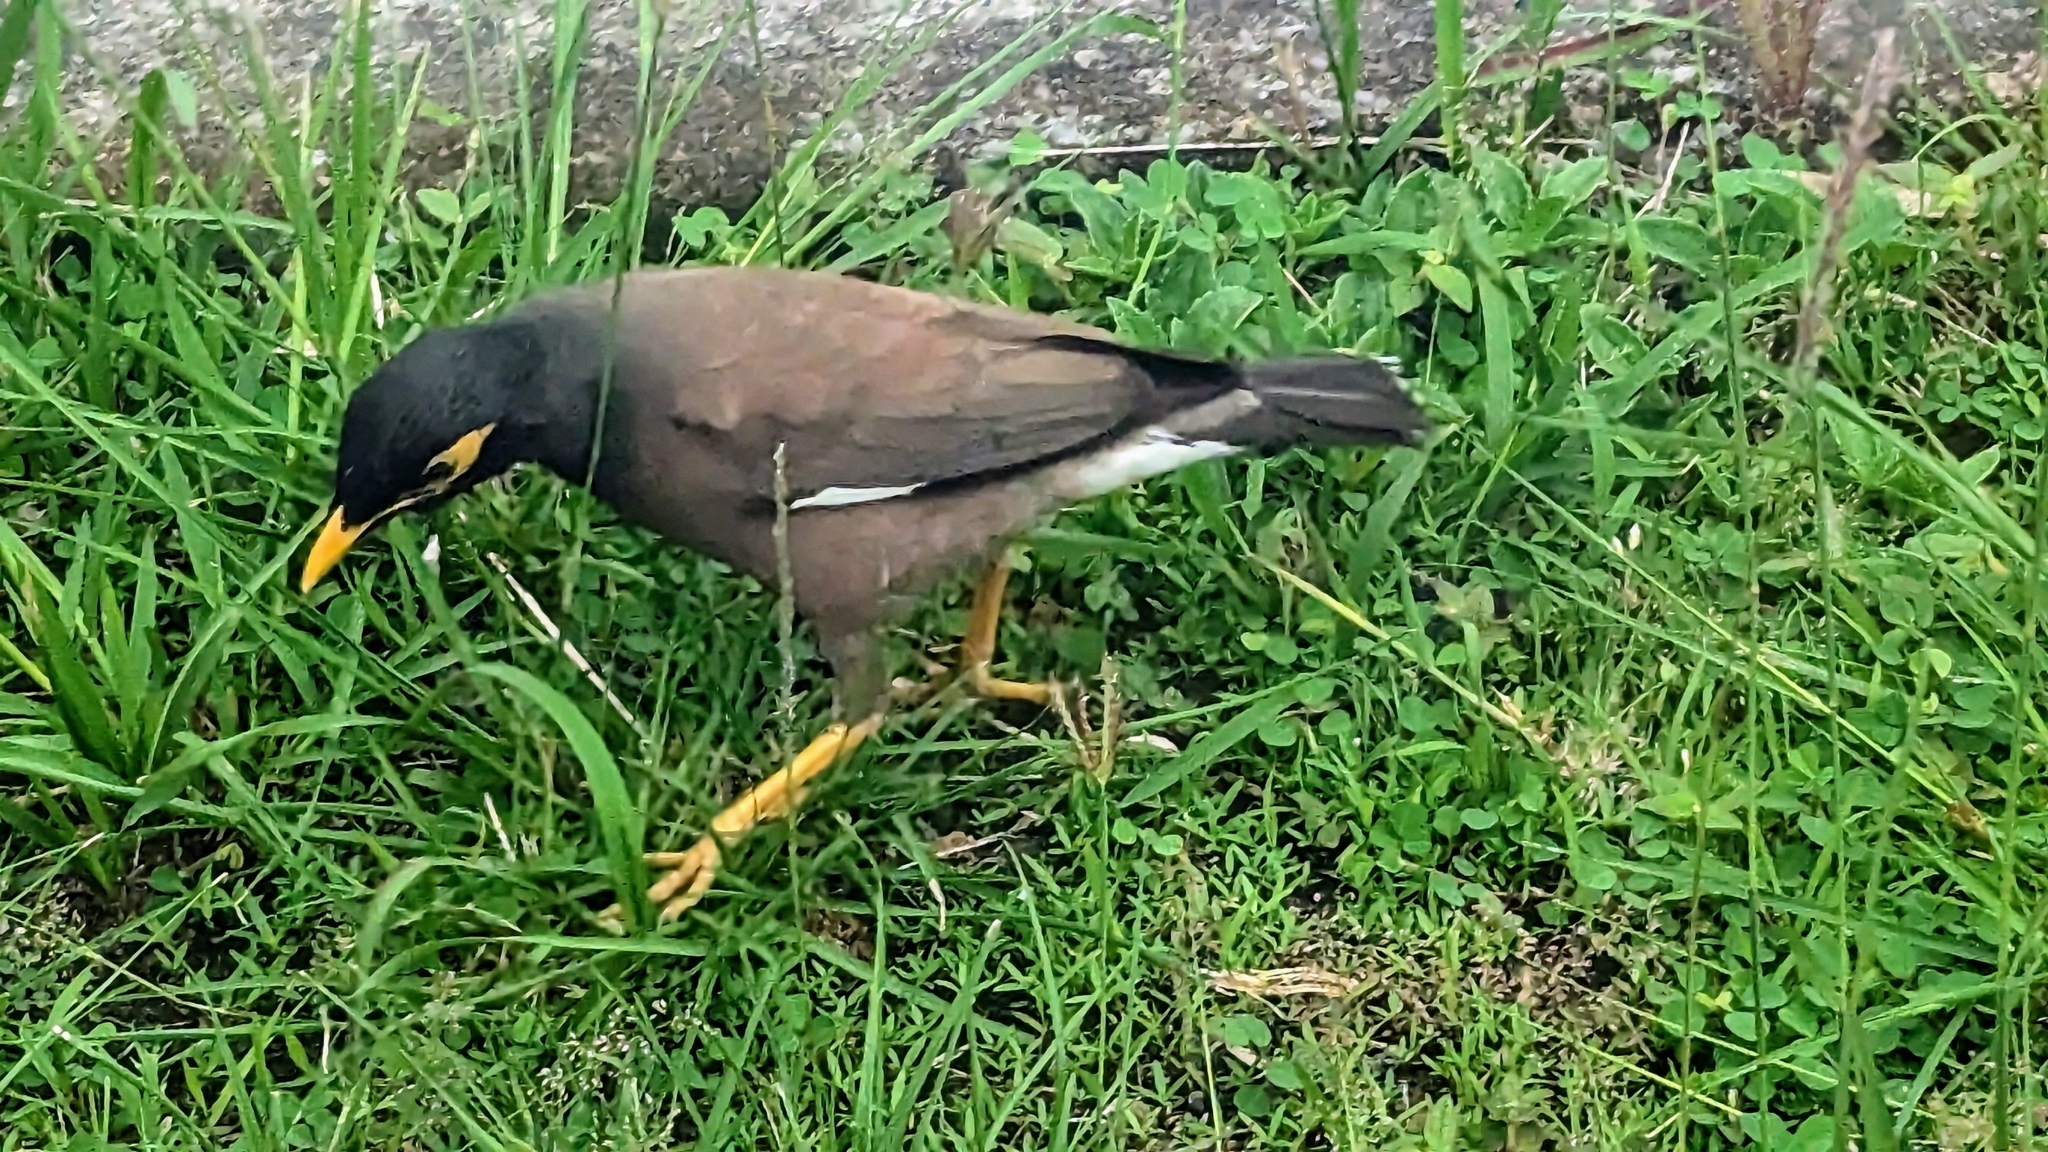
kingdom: Animalia
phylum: Chordata
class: Aves
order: Passeriformes
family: Sturnidae
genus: Acridotheres
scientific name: Acridotheres tristis
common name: Common myna
